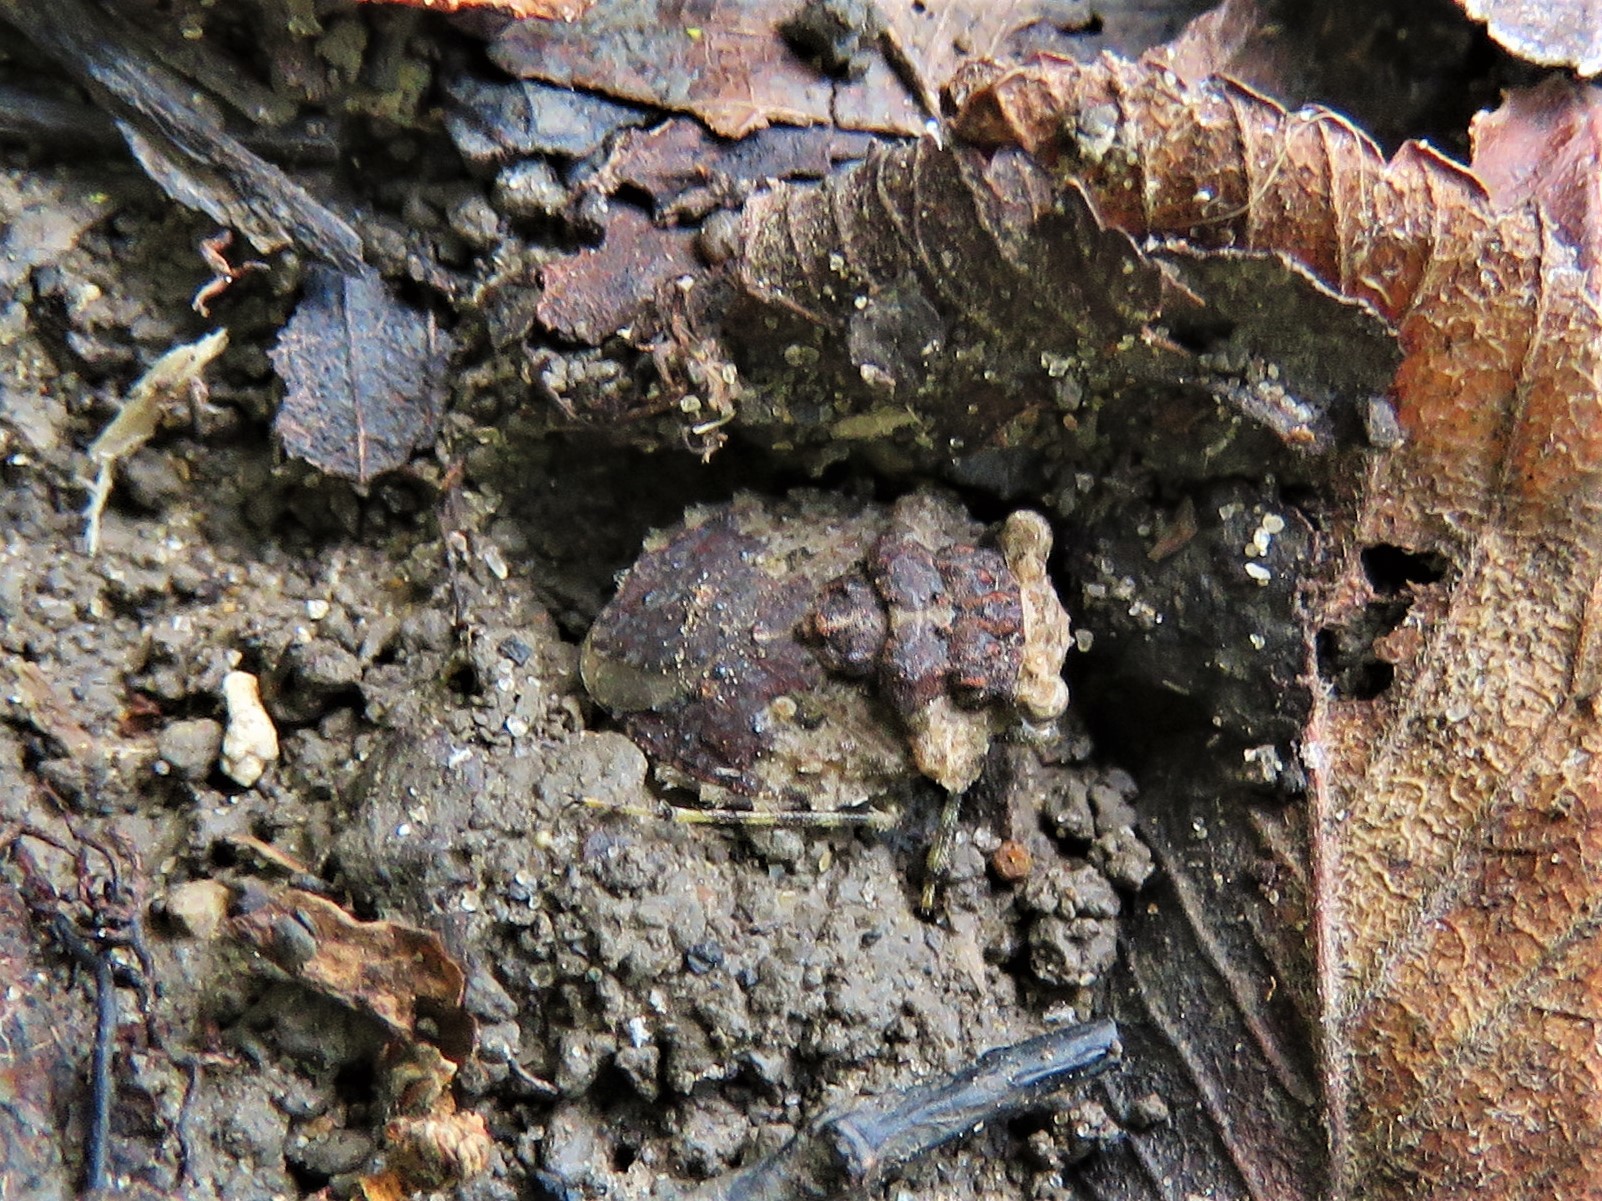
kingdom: Animalia
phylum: Arthropoda
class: Insecta
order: Hemiptera
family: Gelastocoridae
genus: Gelastocoris
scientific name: Gelastocoris oculatus
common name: Toad bug
